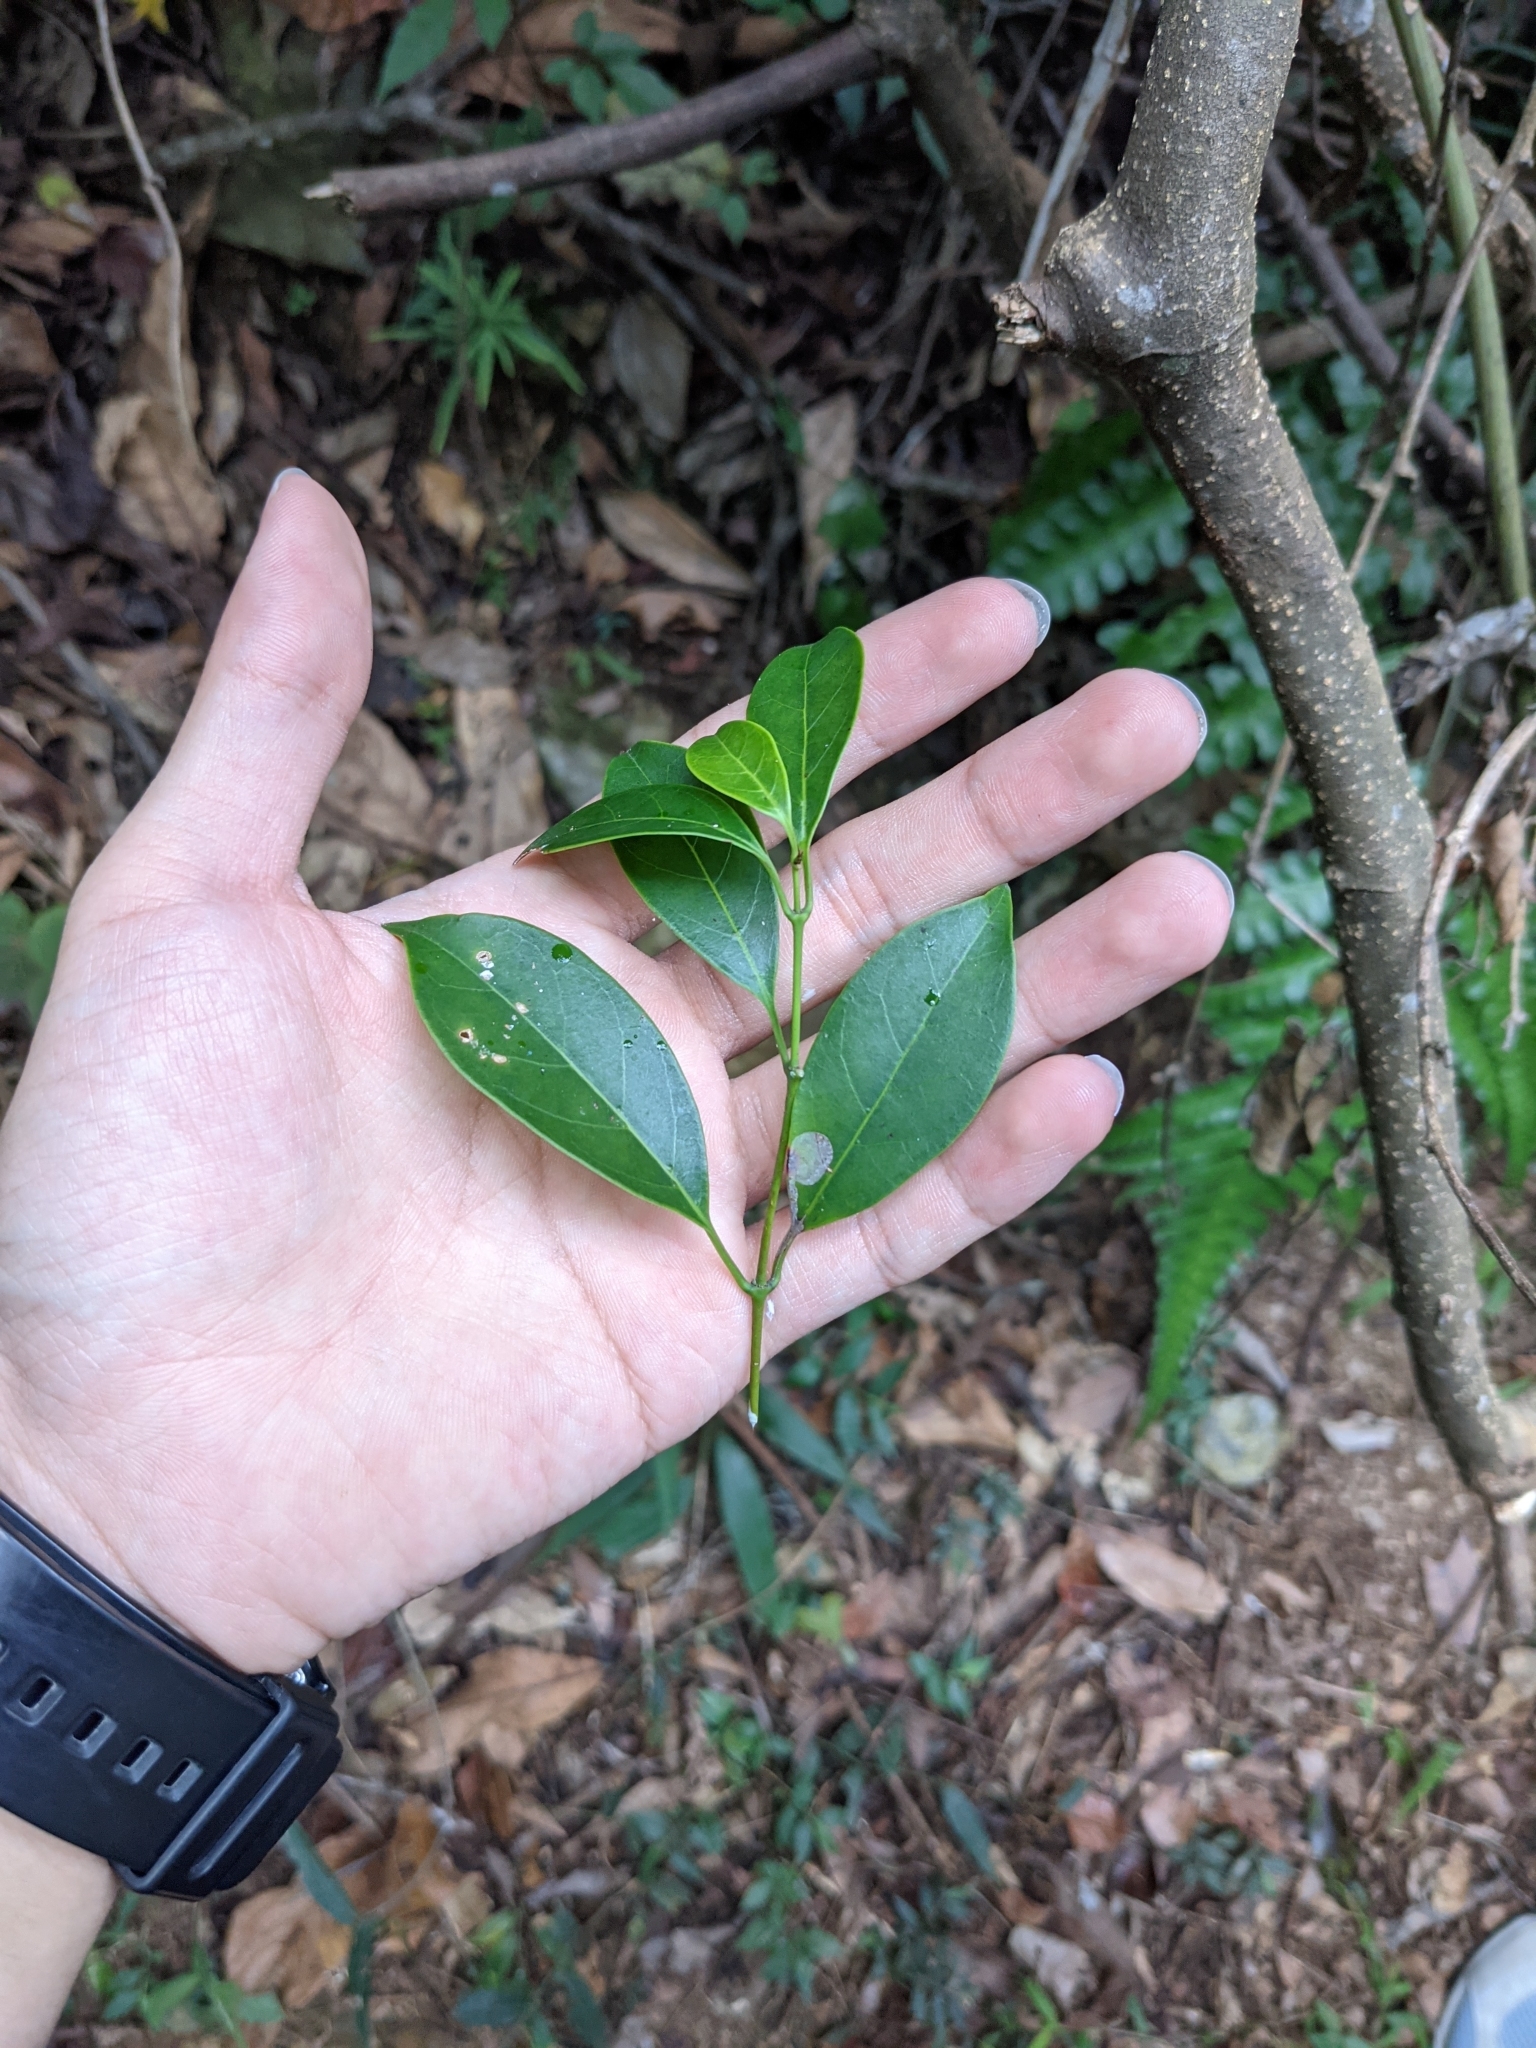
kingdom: Plantae
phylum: Tracheophyta
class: Magnoliopsida
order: Gentianales
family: Apocynaceae
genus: Urceola
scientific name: Urceola rosea
